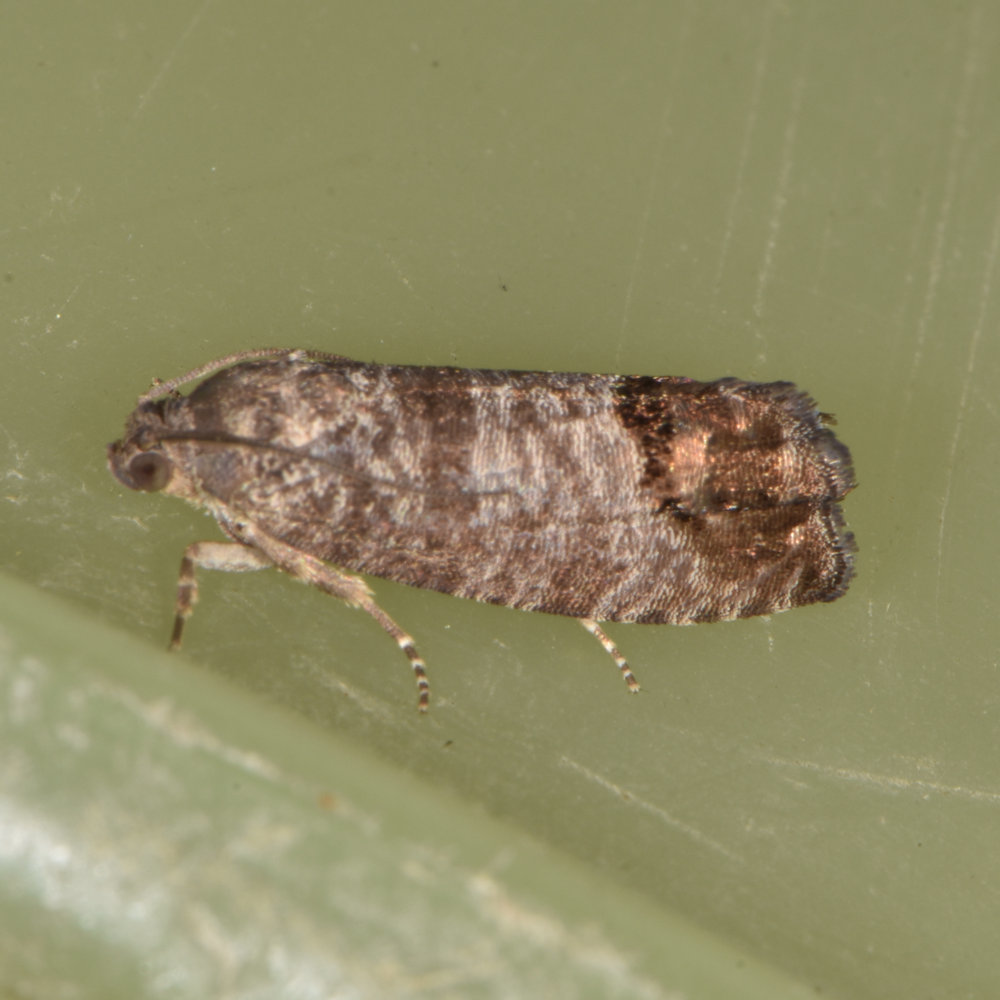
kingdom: Animalia
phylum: Arthropoda
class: Insecta
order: Lepidoptera
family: Tortricidae
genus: Cydia
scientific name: Cydia pomonella
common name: Codling moth
